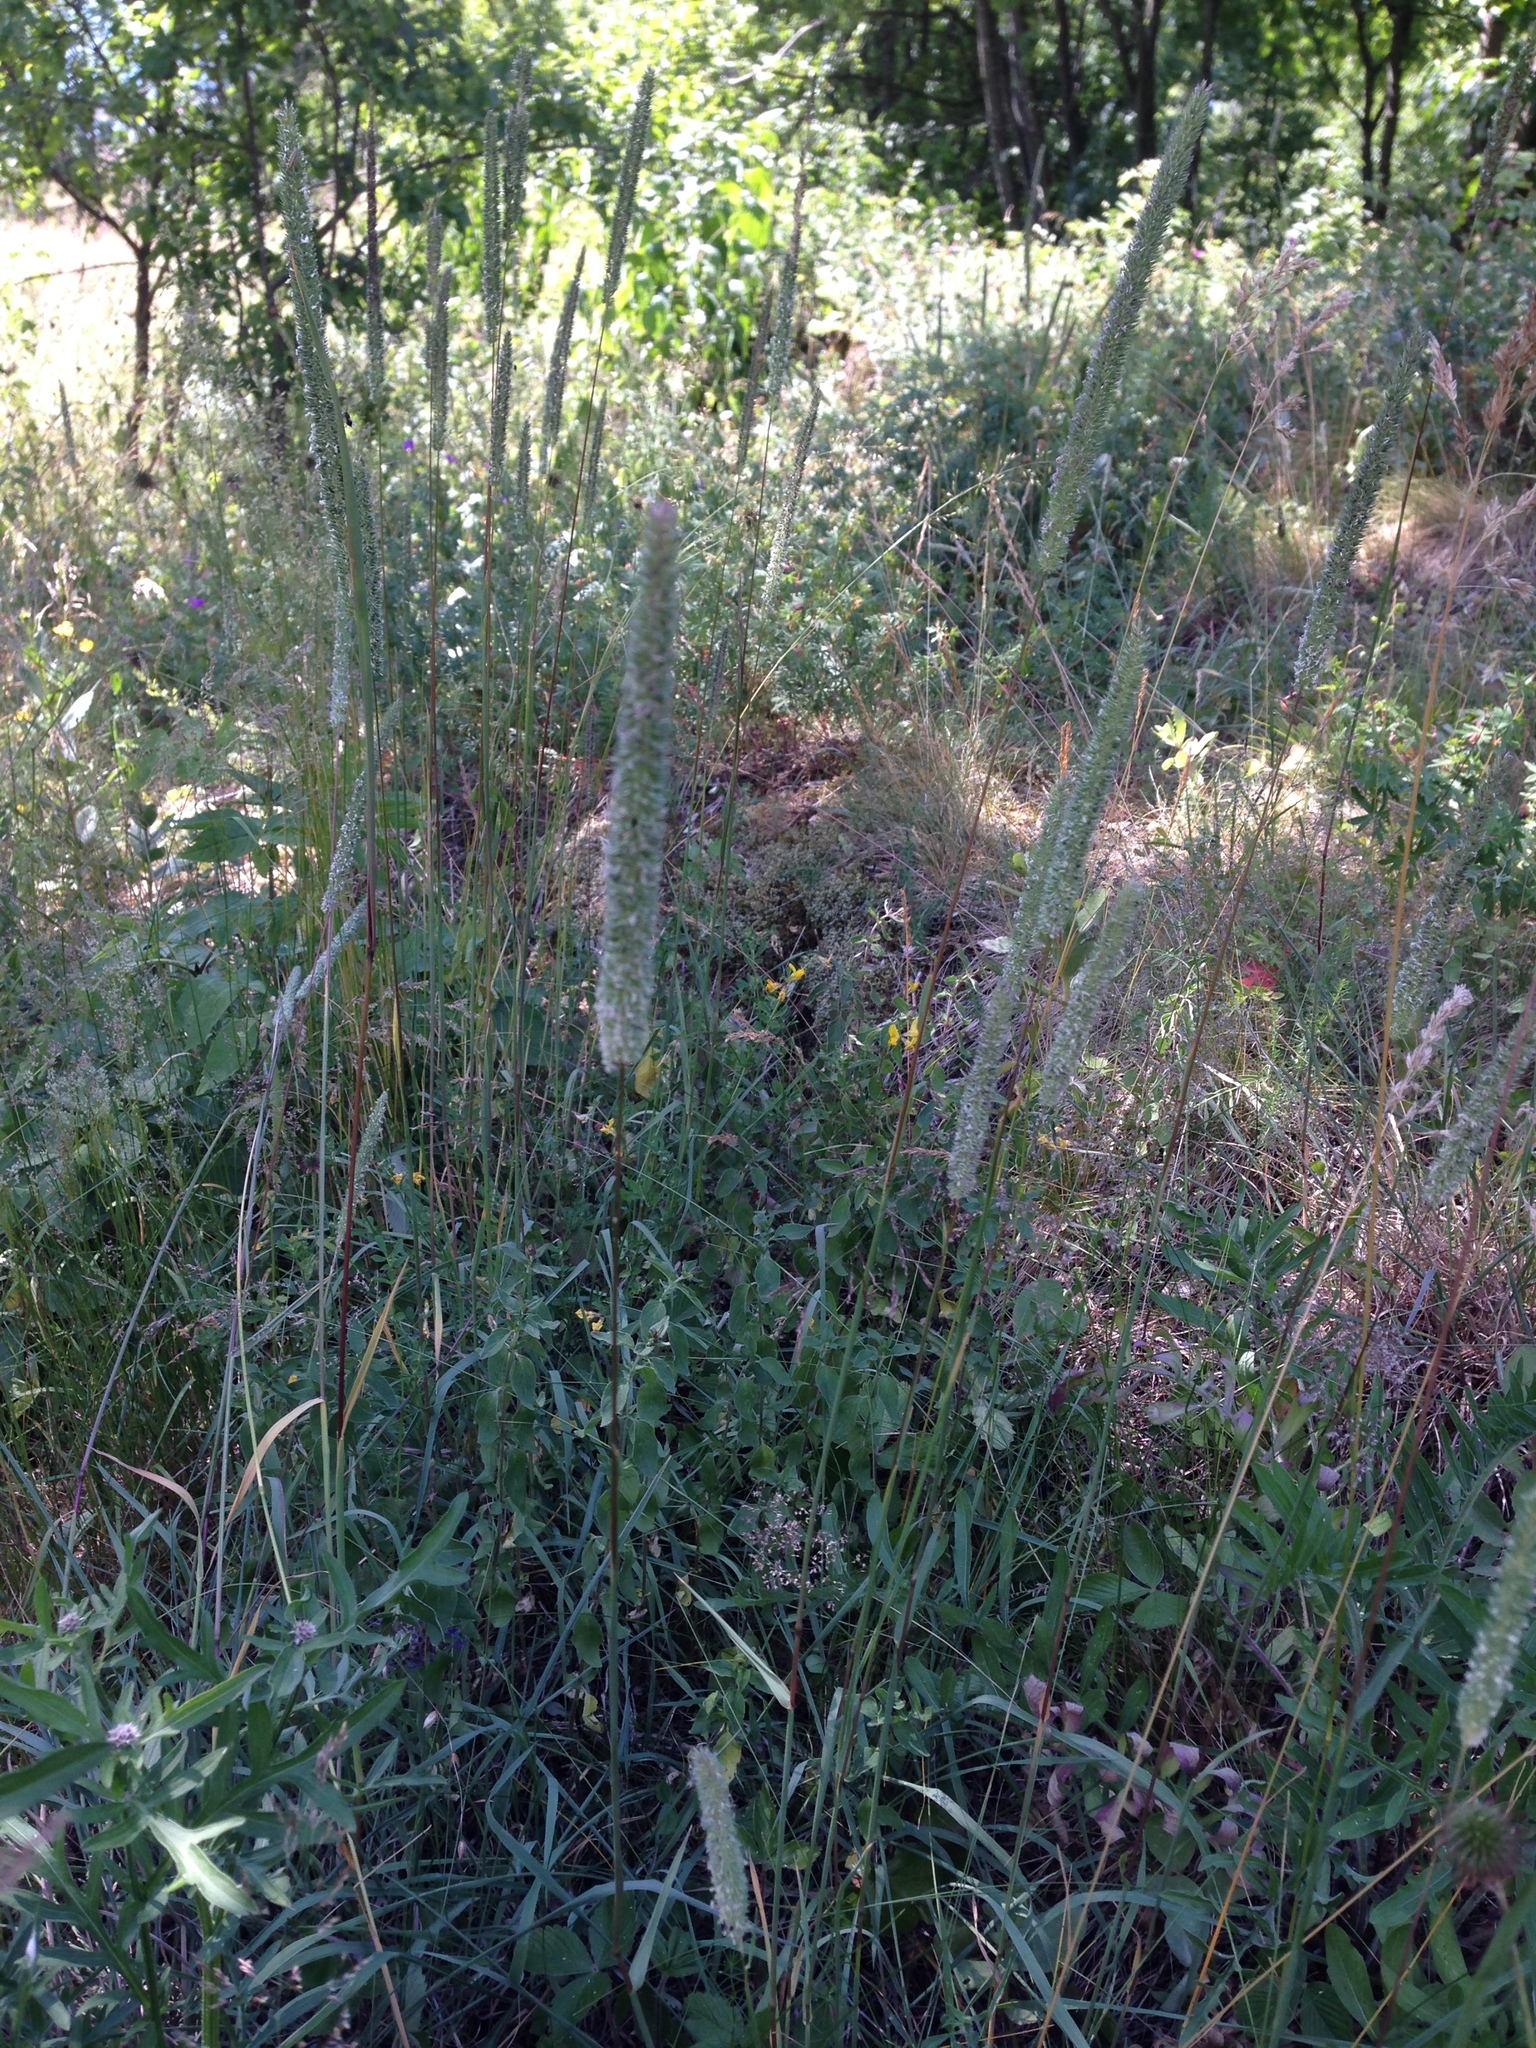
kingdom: Plantae
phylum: Tracheophyta
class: Liliopsida
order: Poales
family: Poaceae
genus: Phleum
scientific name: Phleum pratense
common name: Timothy grass
